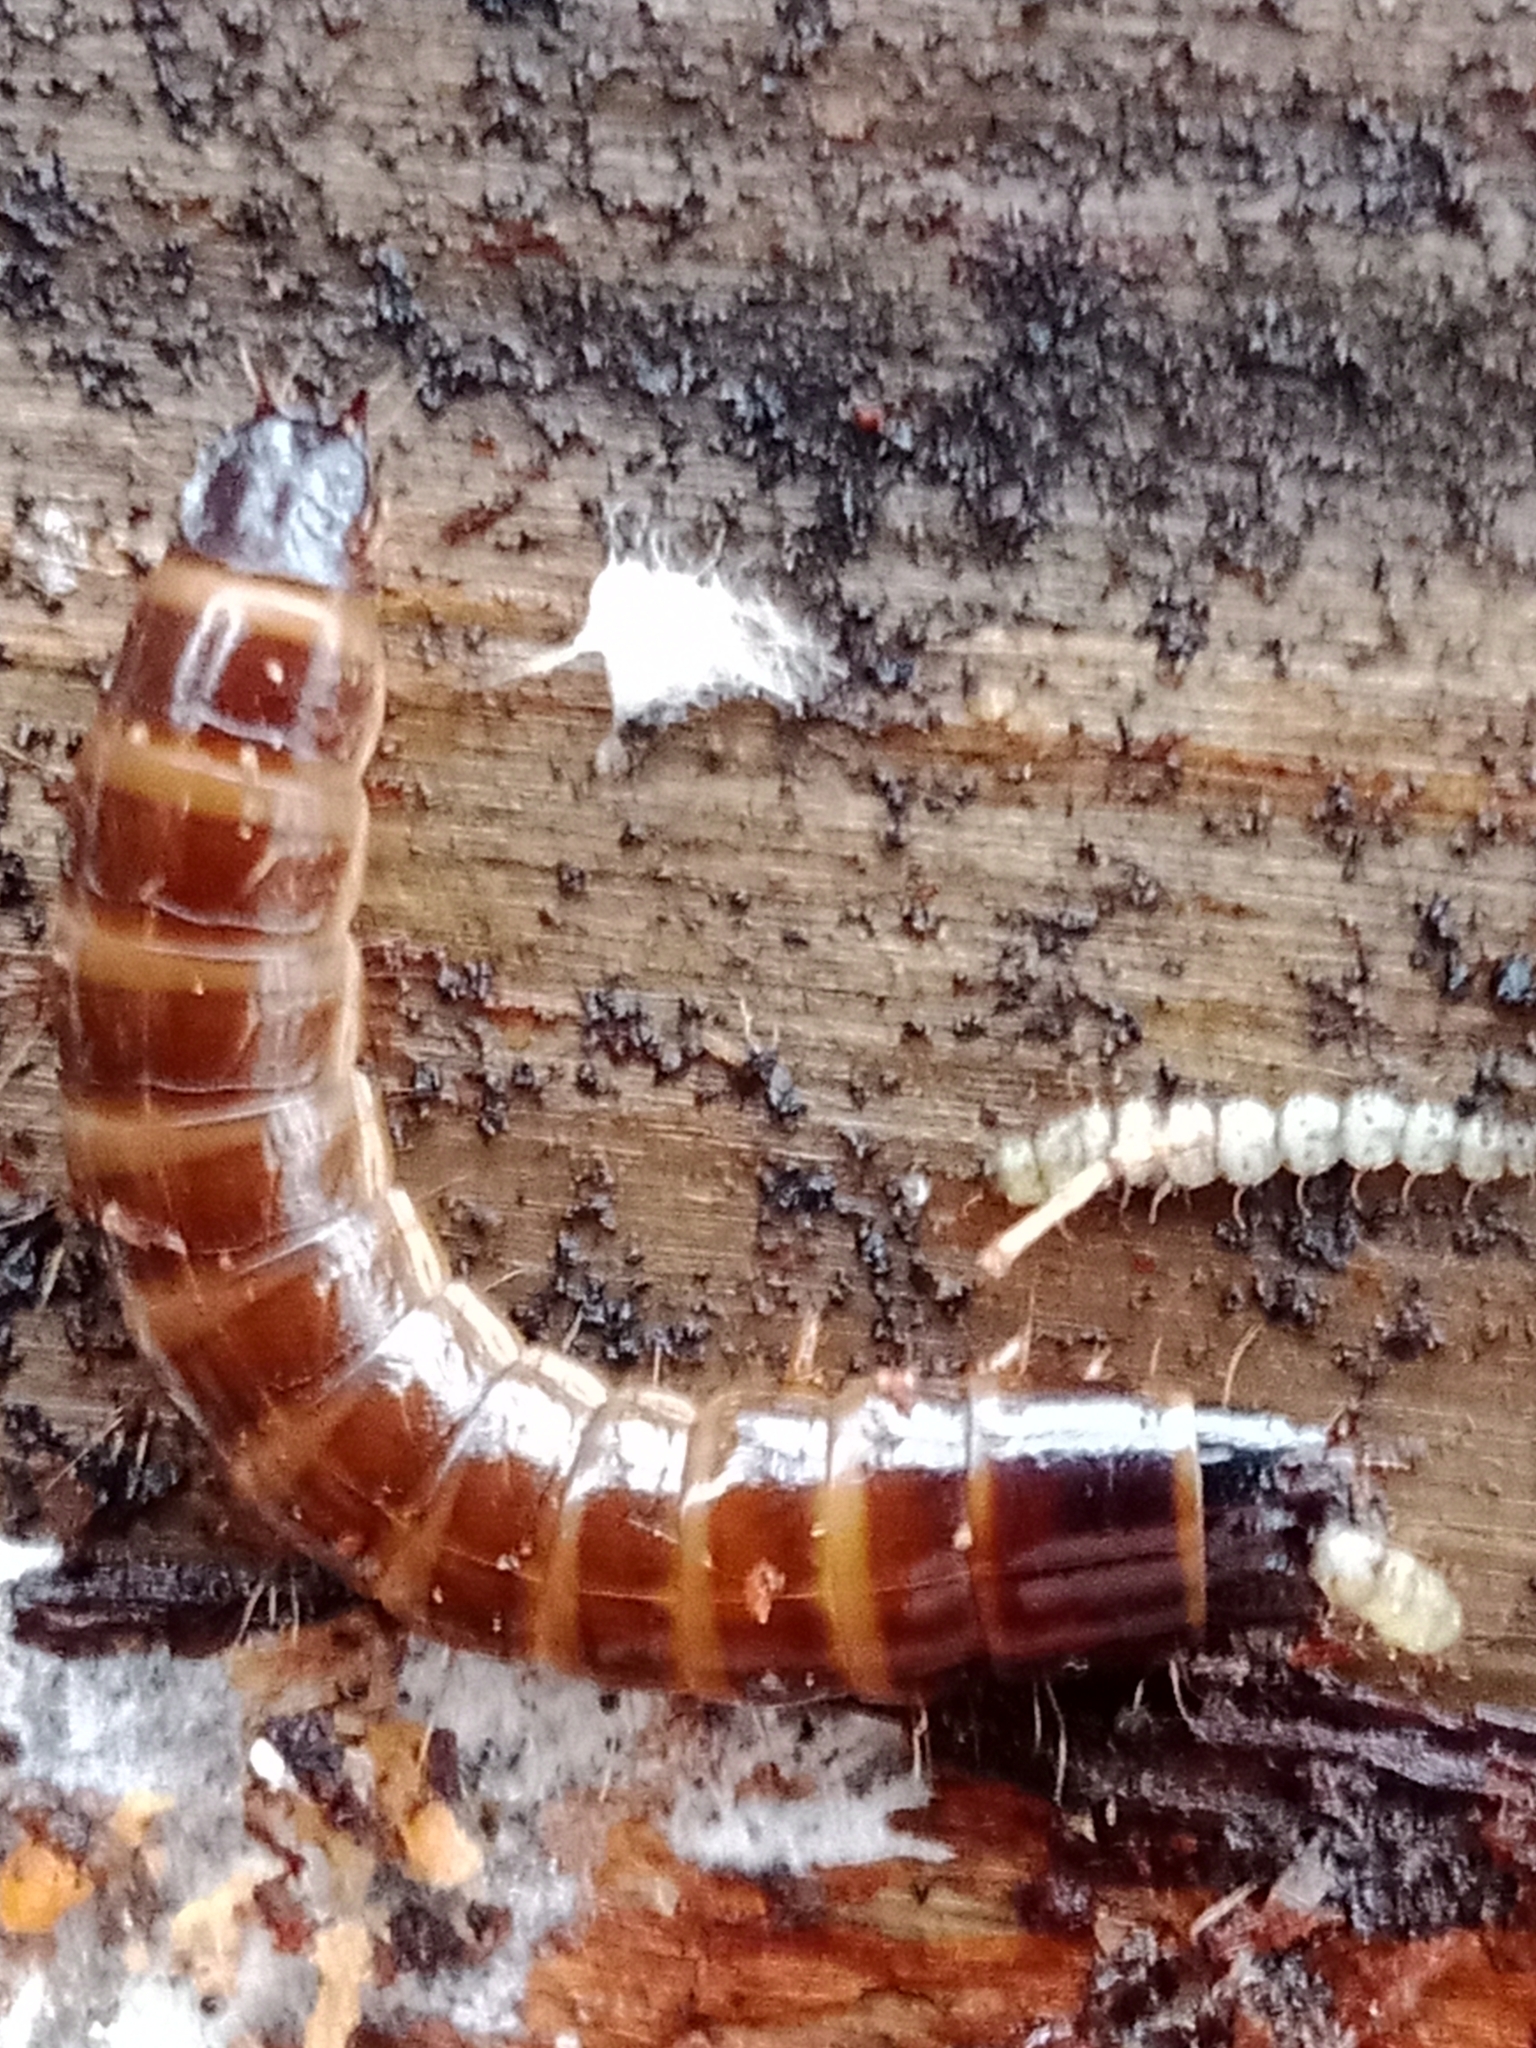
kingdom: Animalia
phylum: Arthropoda
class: Insecta
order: Coleoptera
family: Elateridae
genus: Denticollis
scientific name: Denticollis linearis
